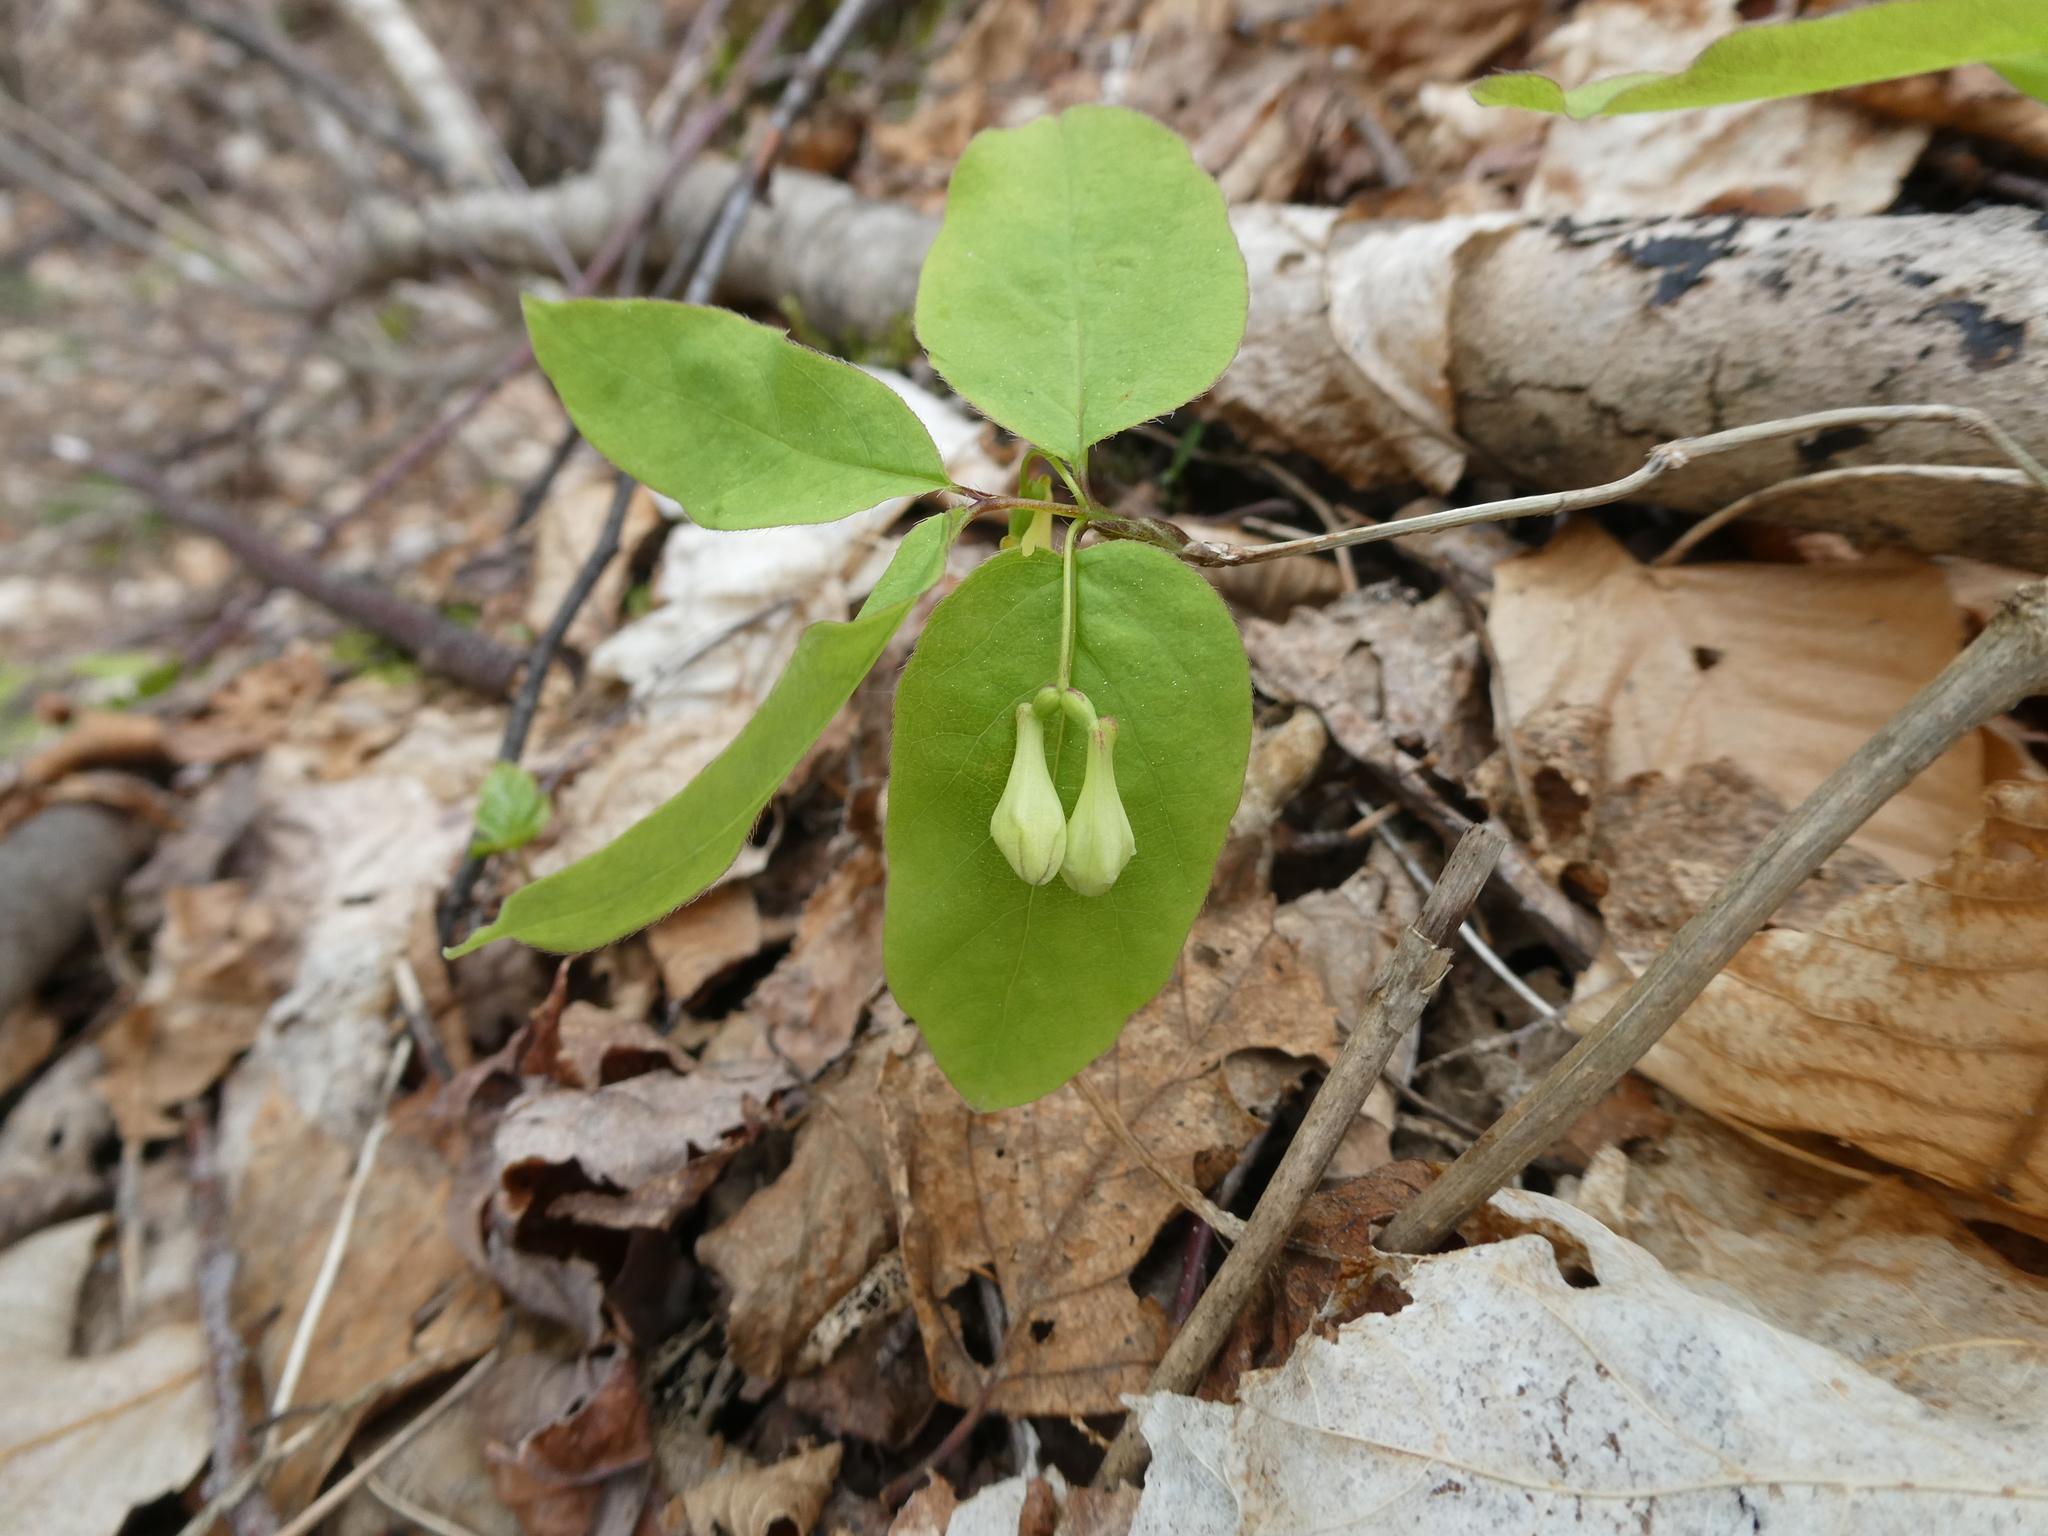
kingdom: Plantae
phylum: Tracheophyta
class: Magnoliopsida
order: Dipsacales
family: Caprifoliaceae
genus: Lonicera
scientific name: Lonicera canadensis
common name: American fly-honeysuckle
